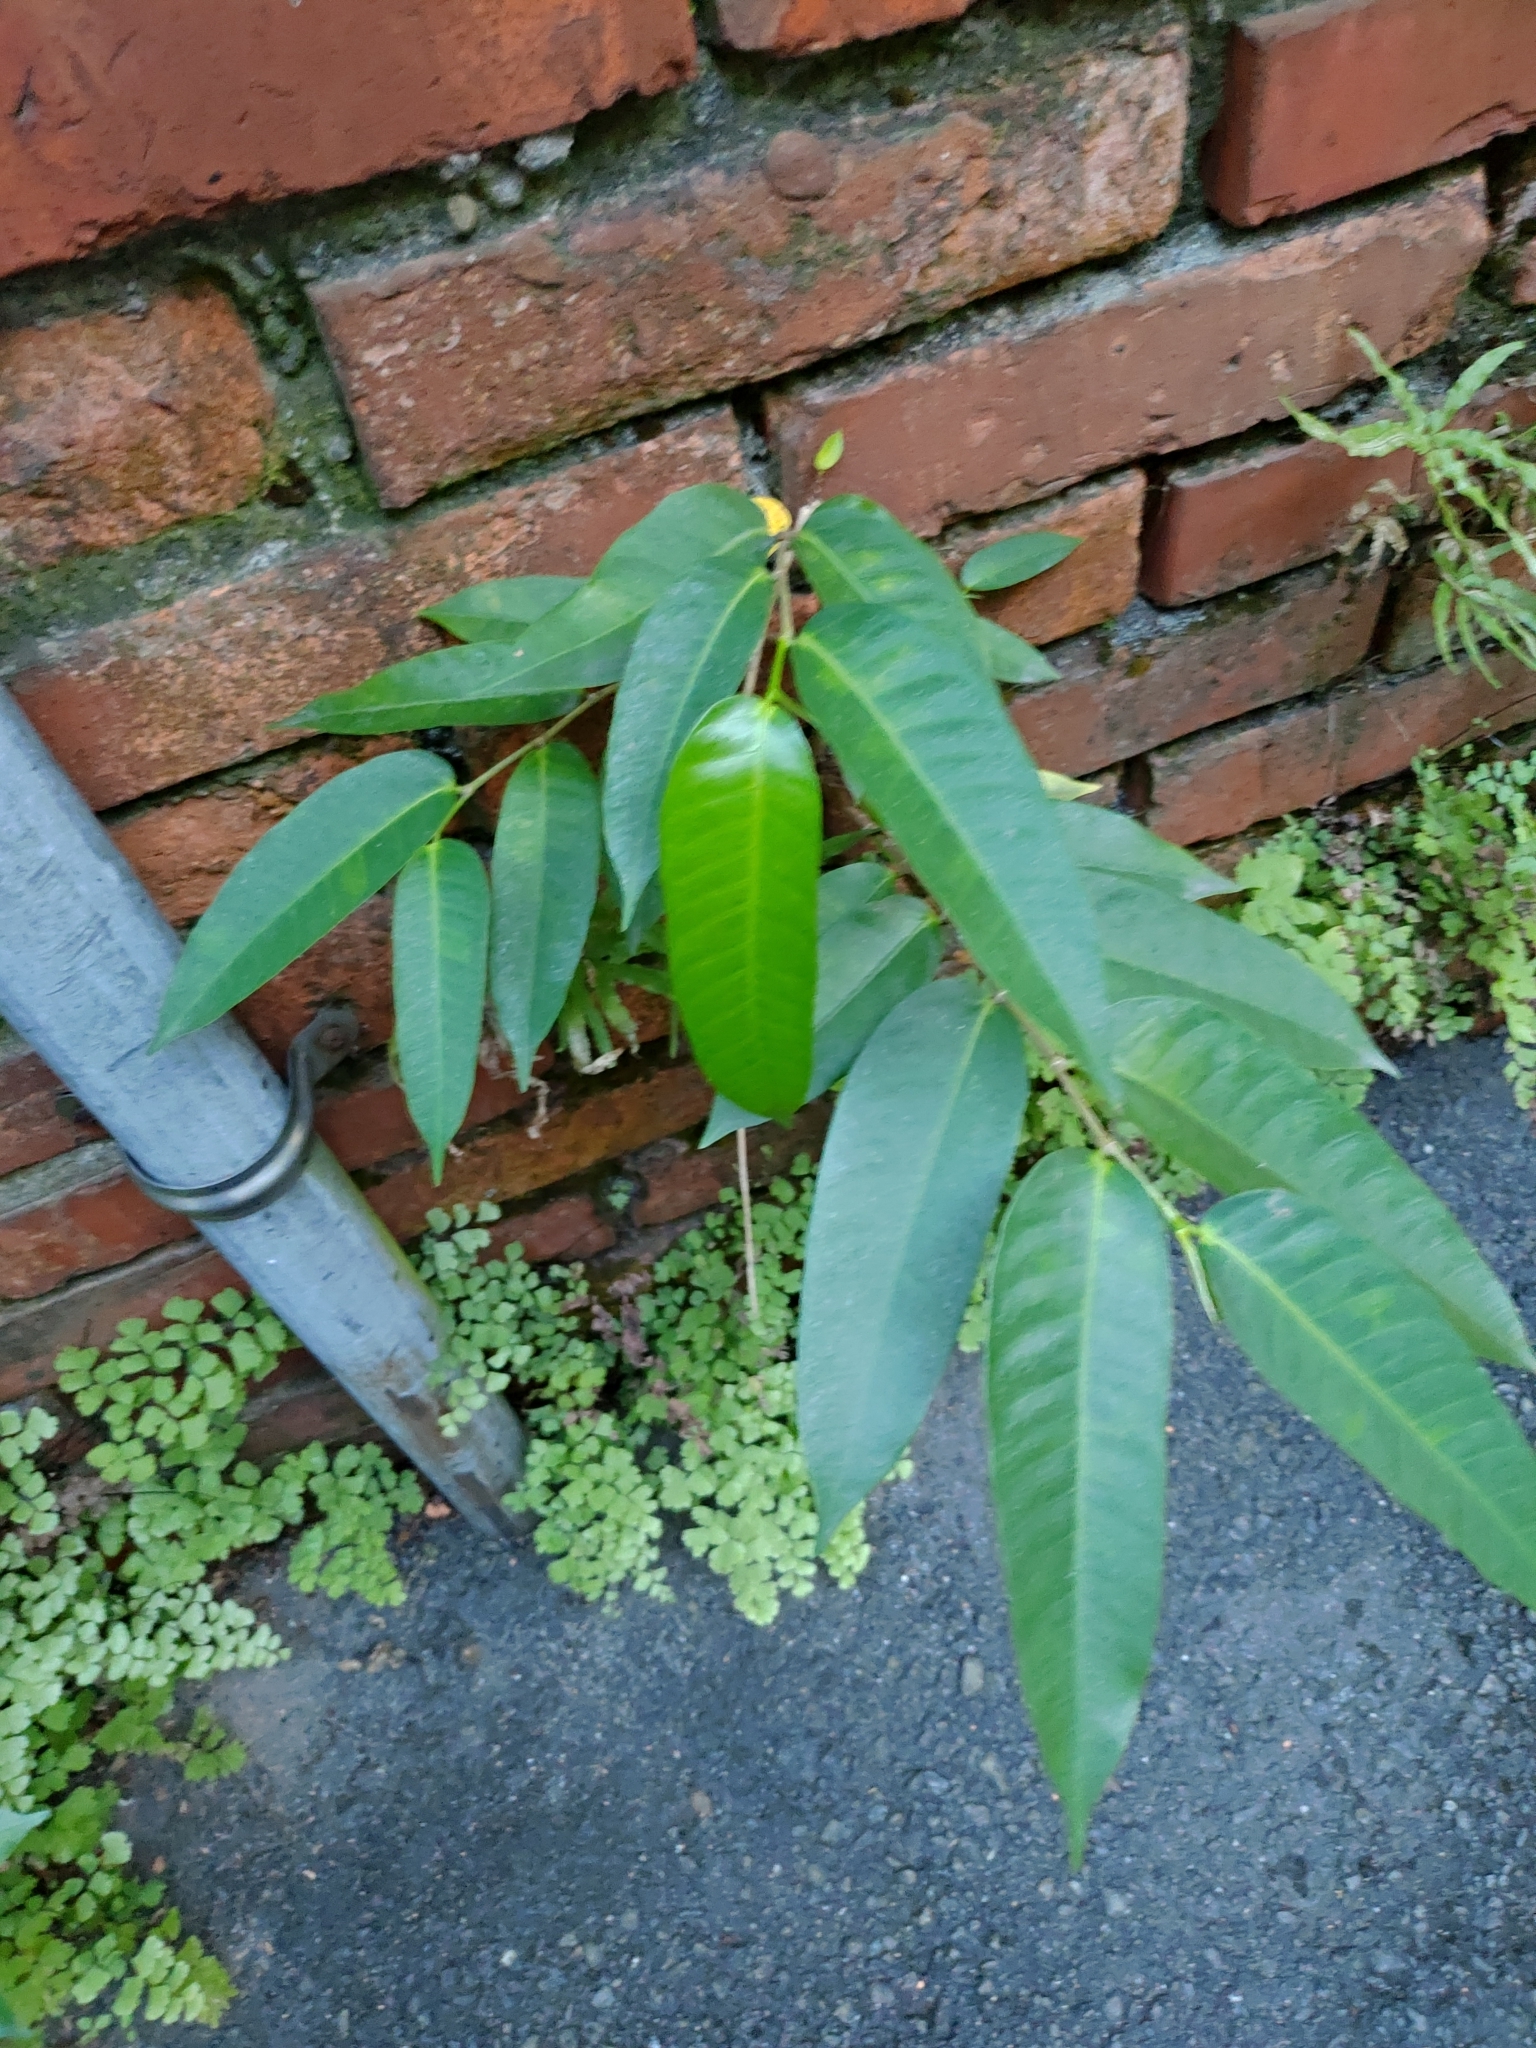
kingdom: Plantae
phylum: Tracheophyta
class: Magnoliopsida
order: Rosales
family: Moraceae
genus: Ficus
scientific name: Ficus virgata
